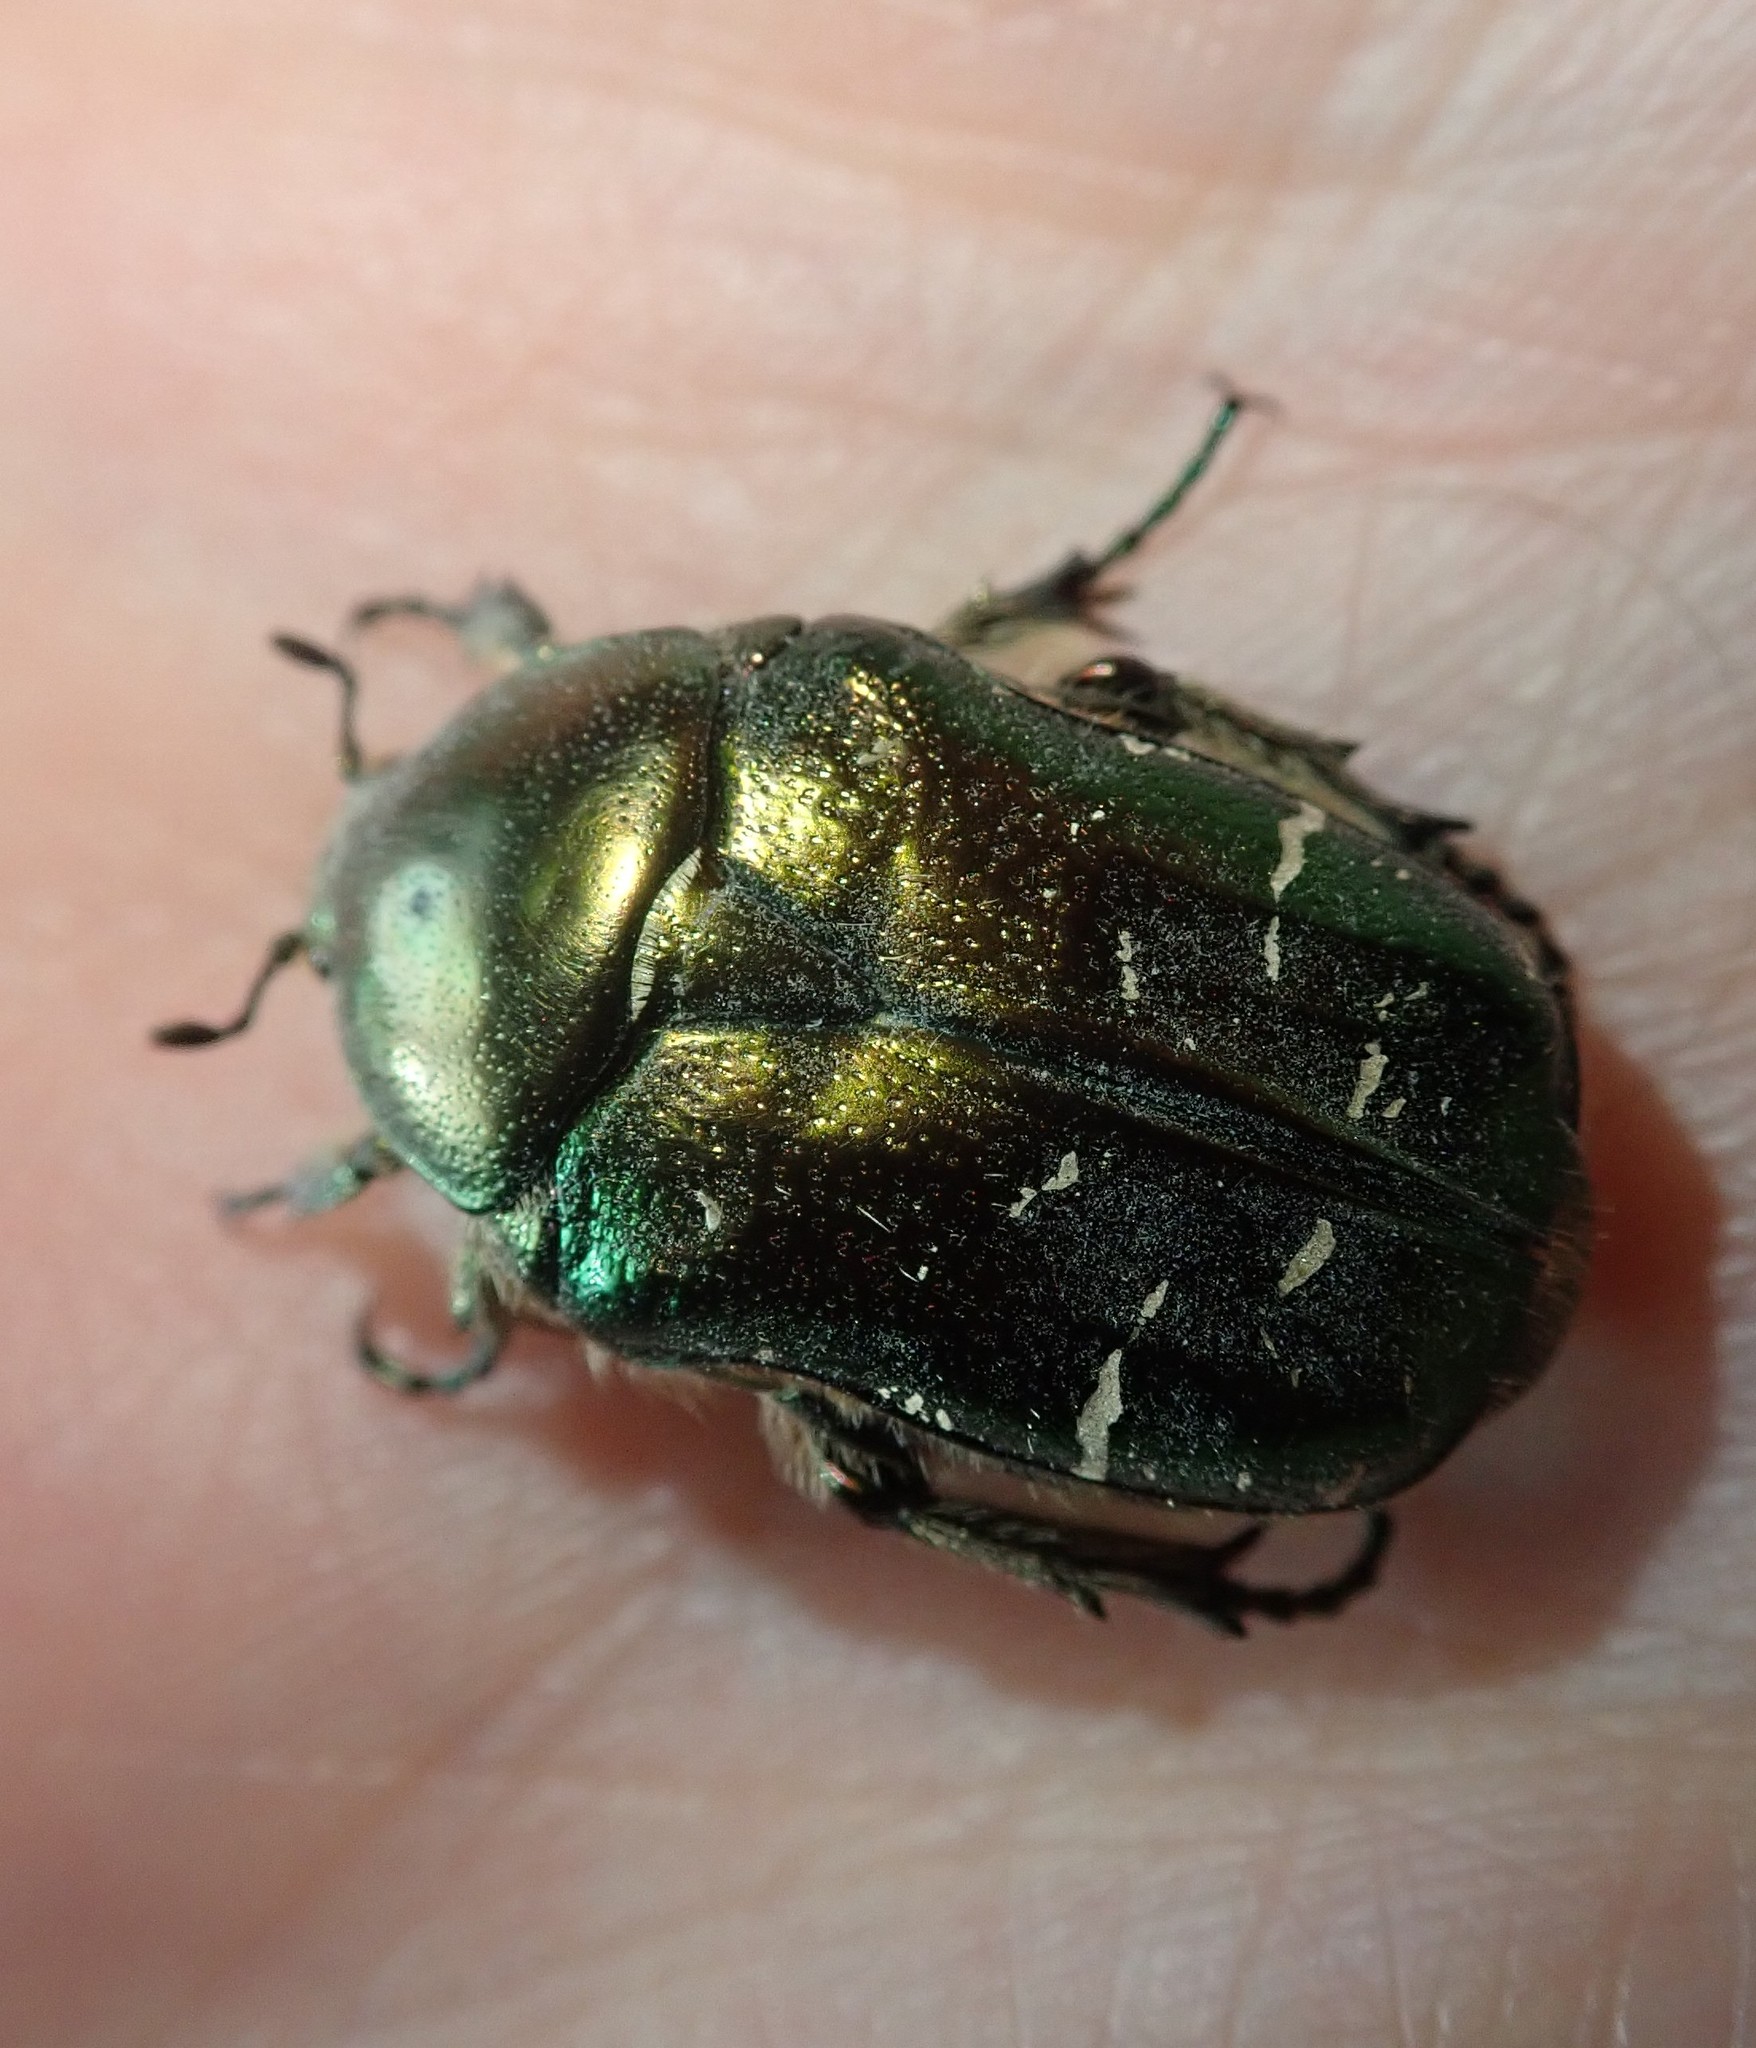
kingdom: Animalia
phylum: Arthropoda
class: Insecta
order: Coleoptera
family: Scarabaeidae
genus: Cetonia
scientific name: Cetonia aurata
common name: Rose chafer
